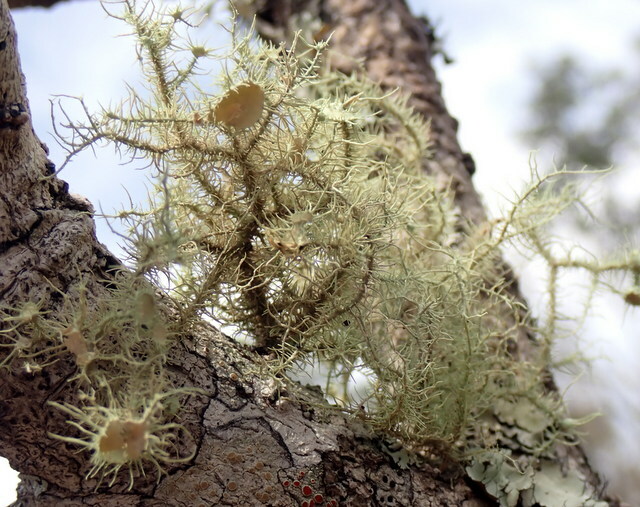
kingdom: Fungi
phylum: Ascomycota
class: Lecanoromycetes
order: Lecanorales
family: Parmeliaceae
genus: Usnea
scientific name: Usnea strigosa
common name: Bushy beard lichen
